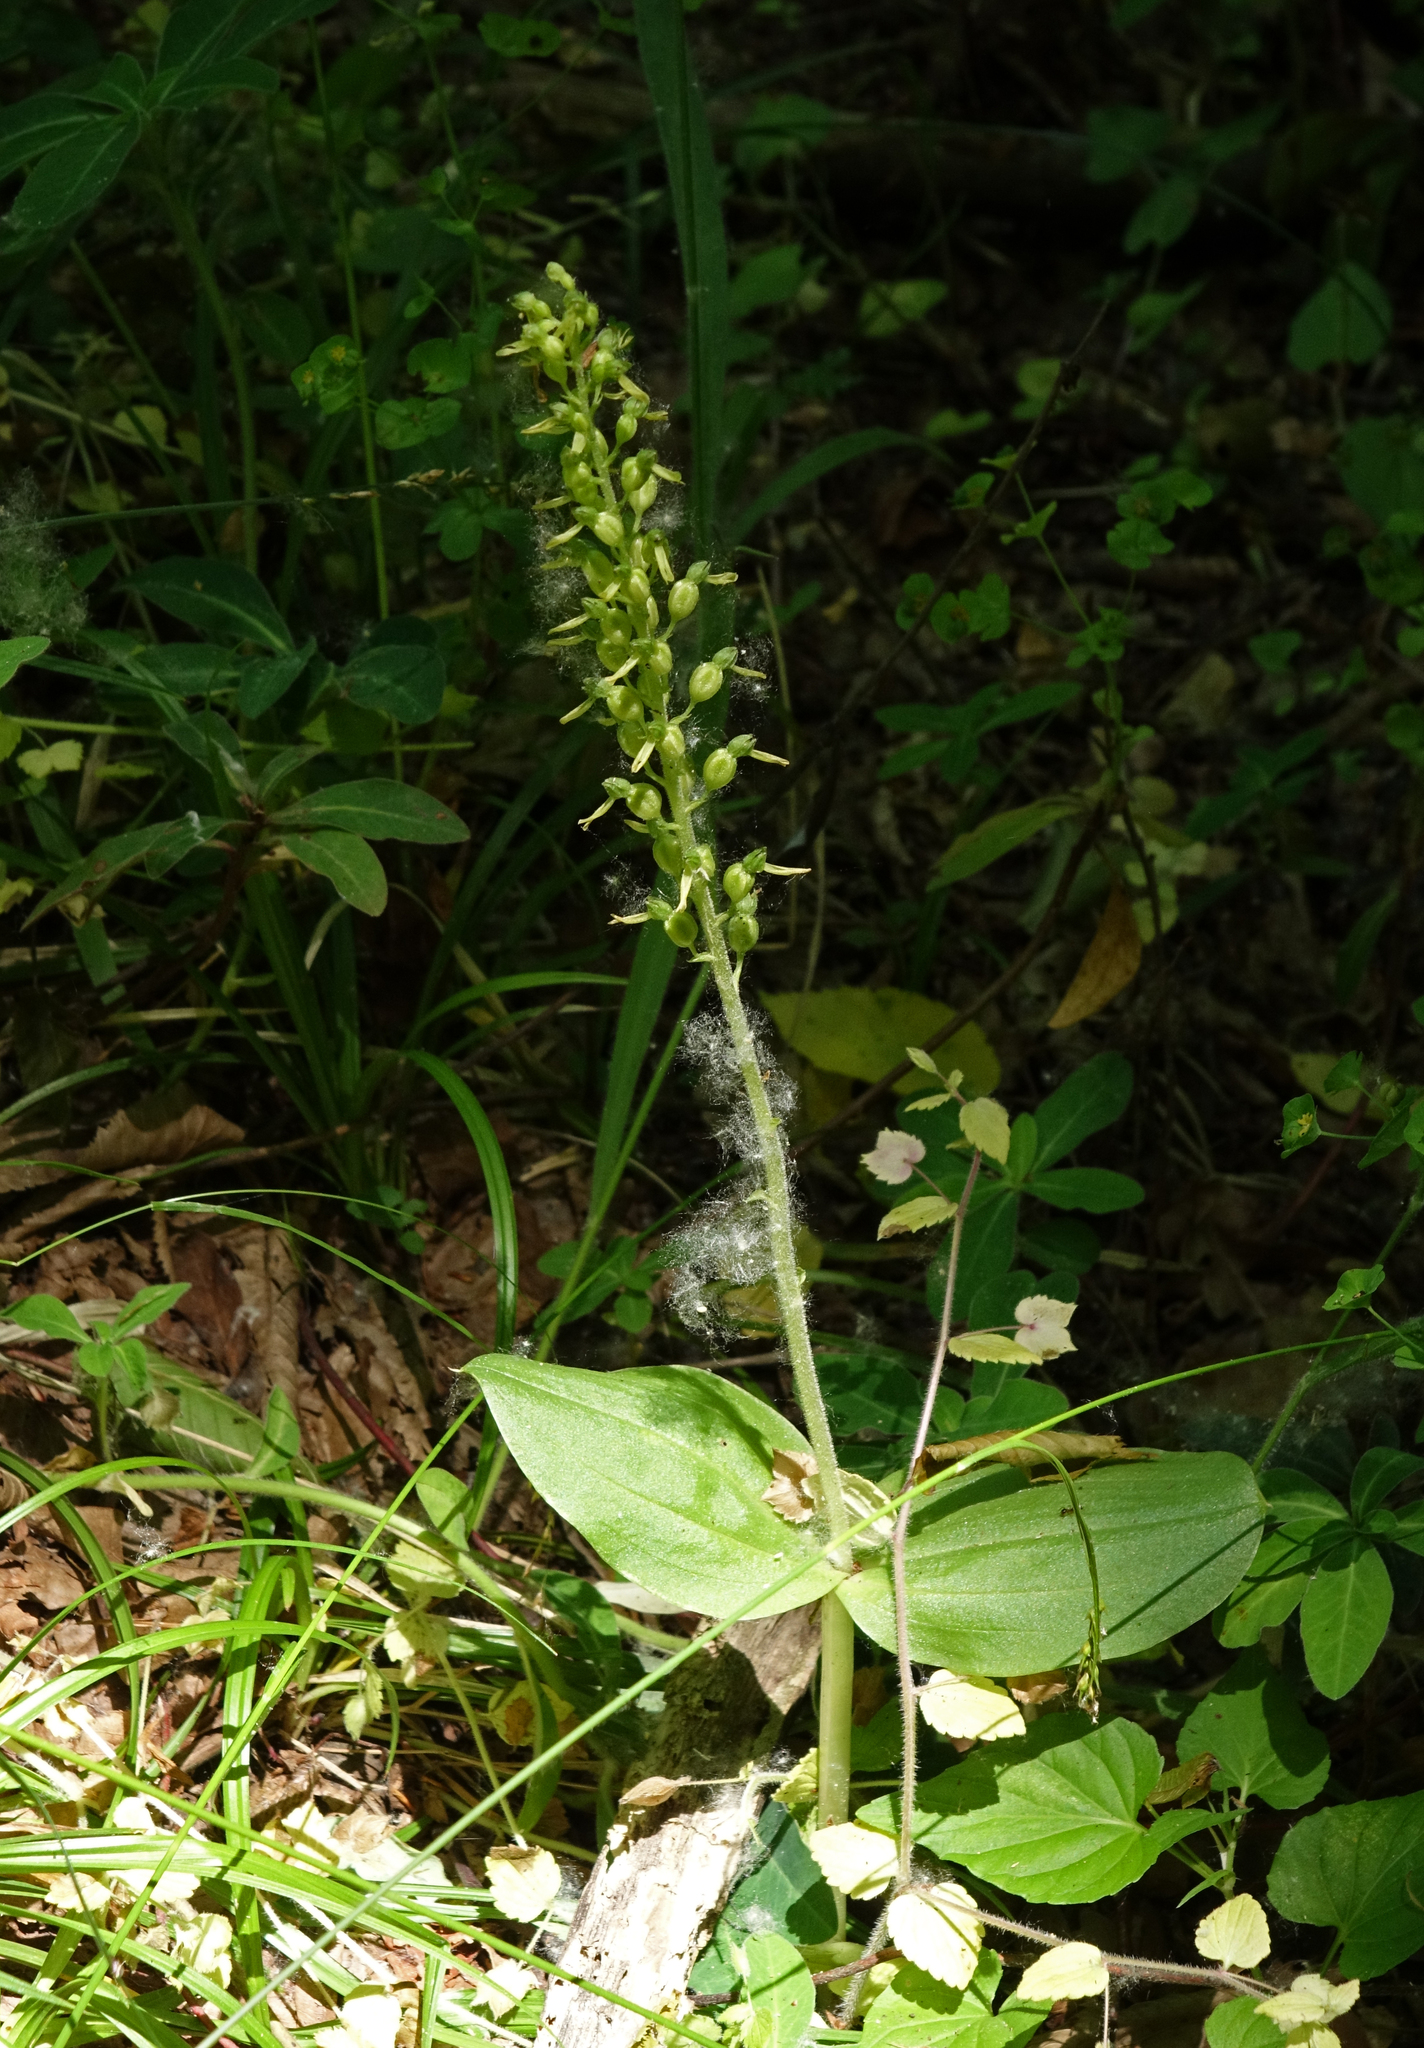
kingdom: Plantae
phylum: Tracheophyta
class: Liliopsida
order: Asparagales
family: Orchidaceae
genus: Neottia
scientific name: Neottia ovata
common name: Common twayblade
